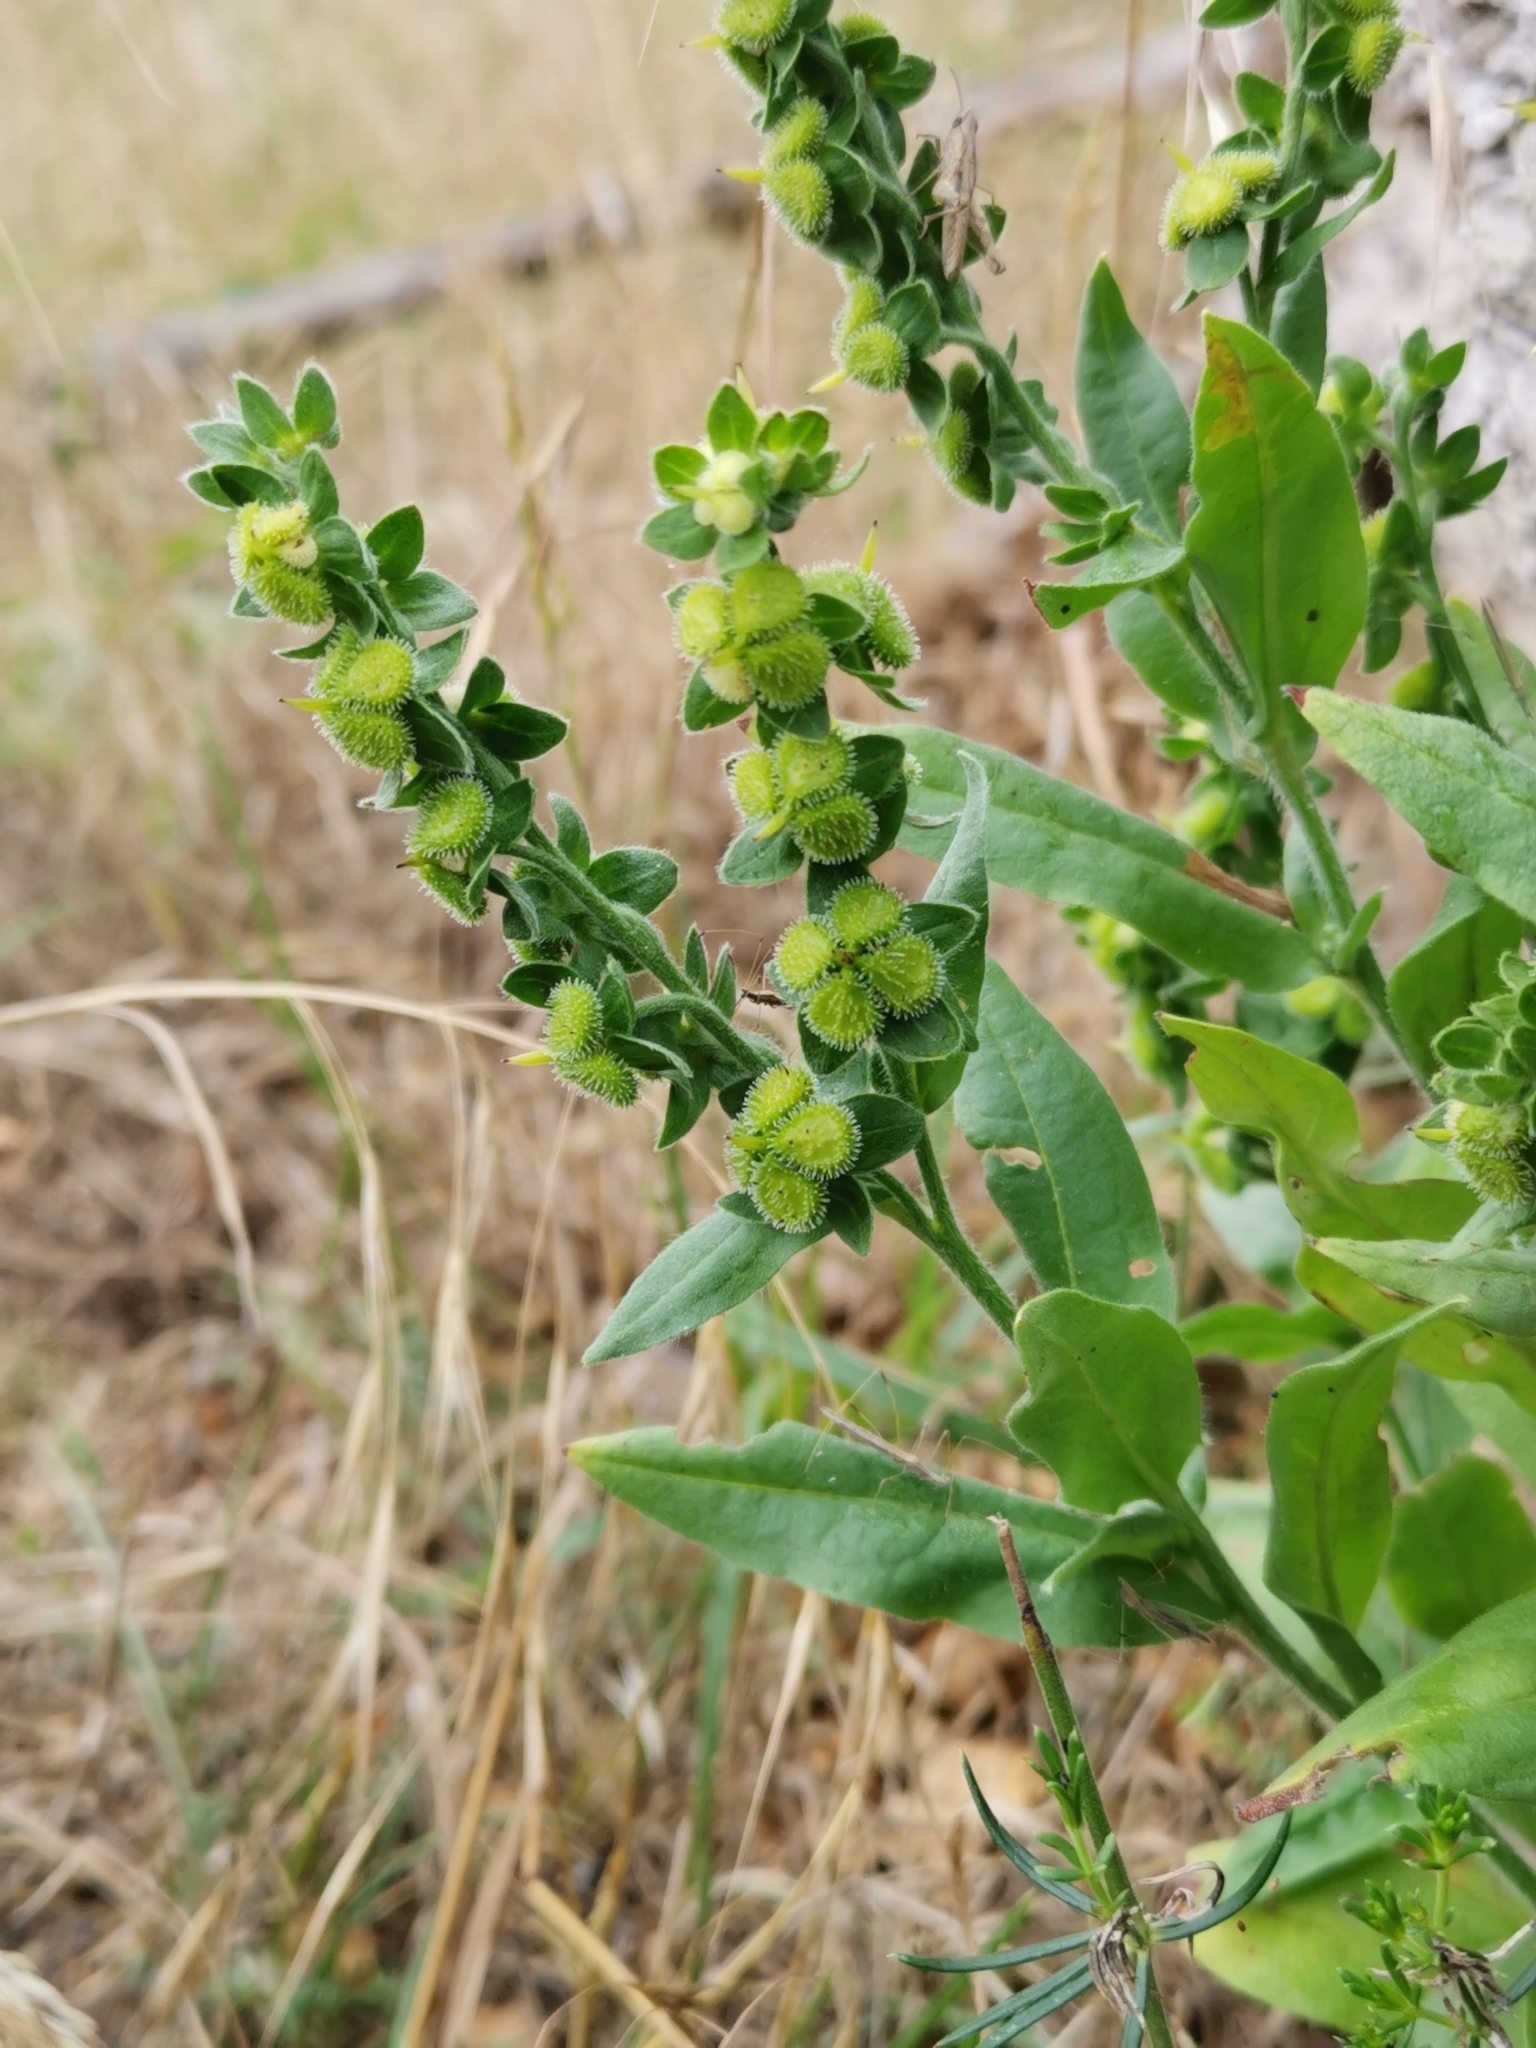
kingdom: Plantae
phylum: Tracheophyta
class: Magnoliopsida
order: Boraginales
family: Boraginaceae
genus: Cynoglossum
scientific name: Cynoglossum officinale
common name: Hound's-tongue
